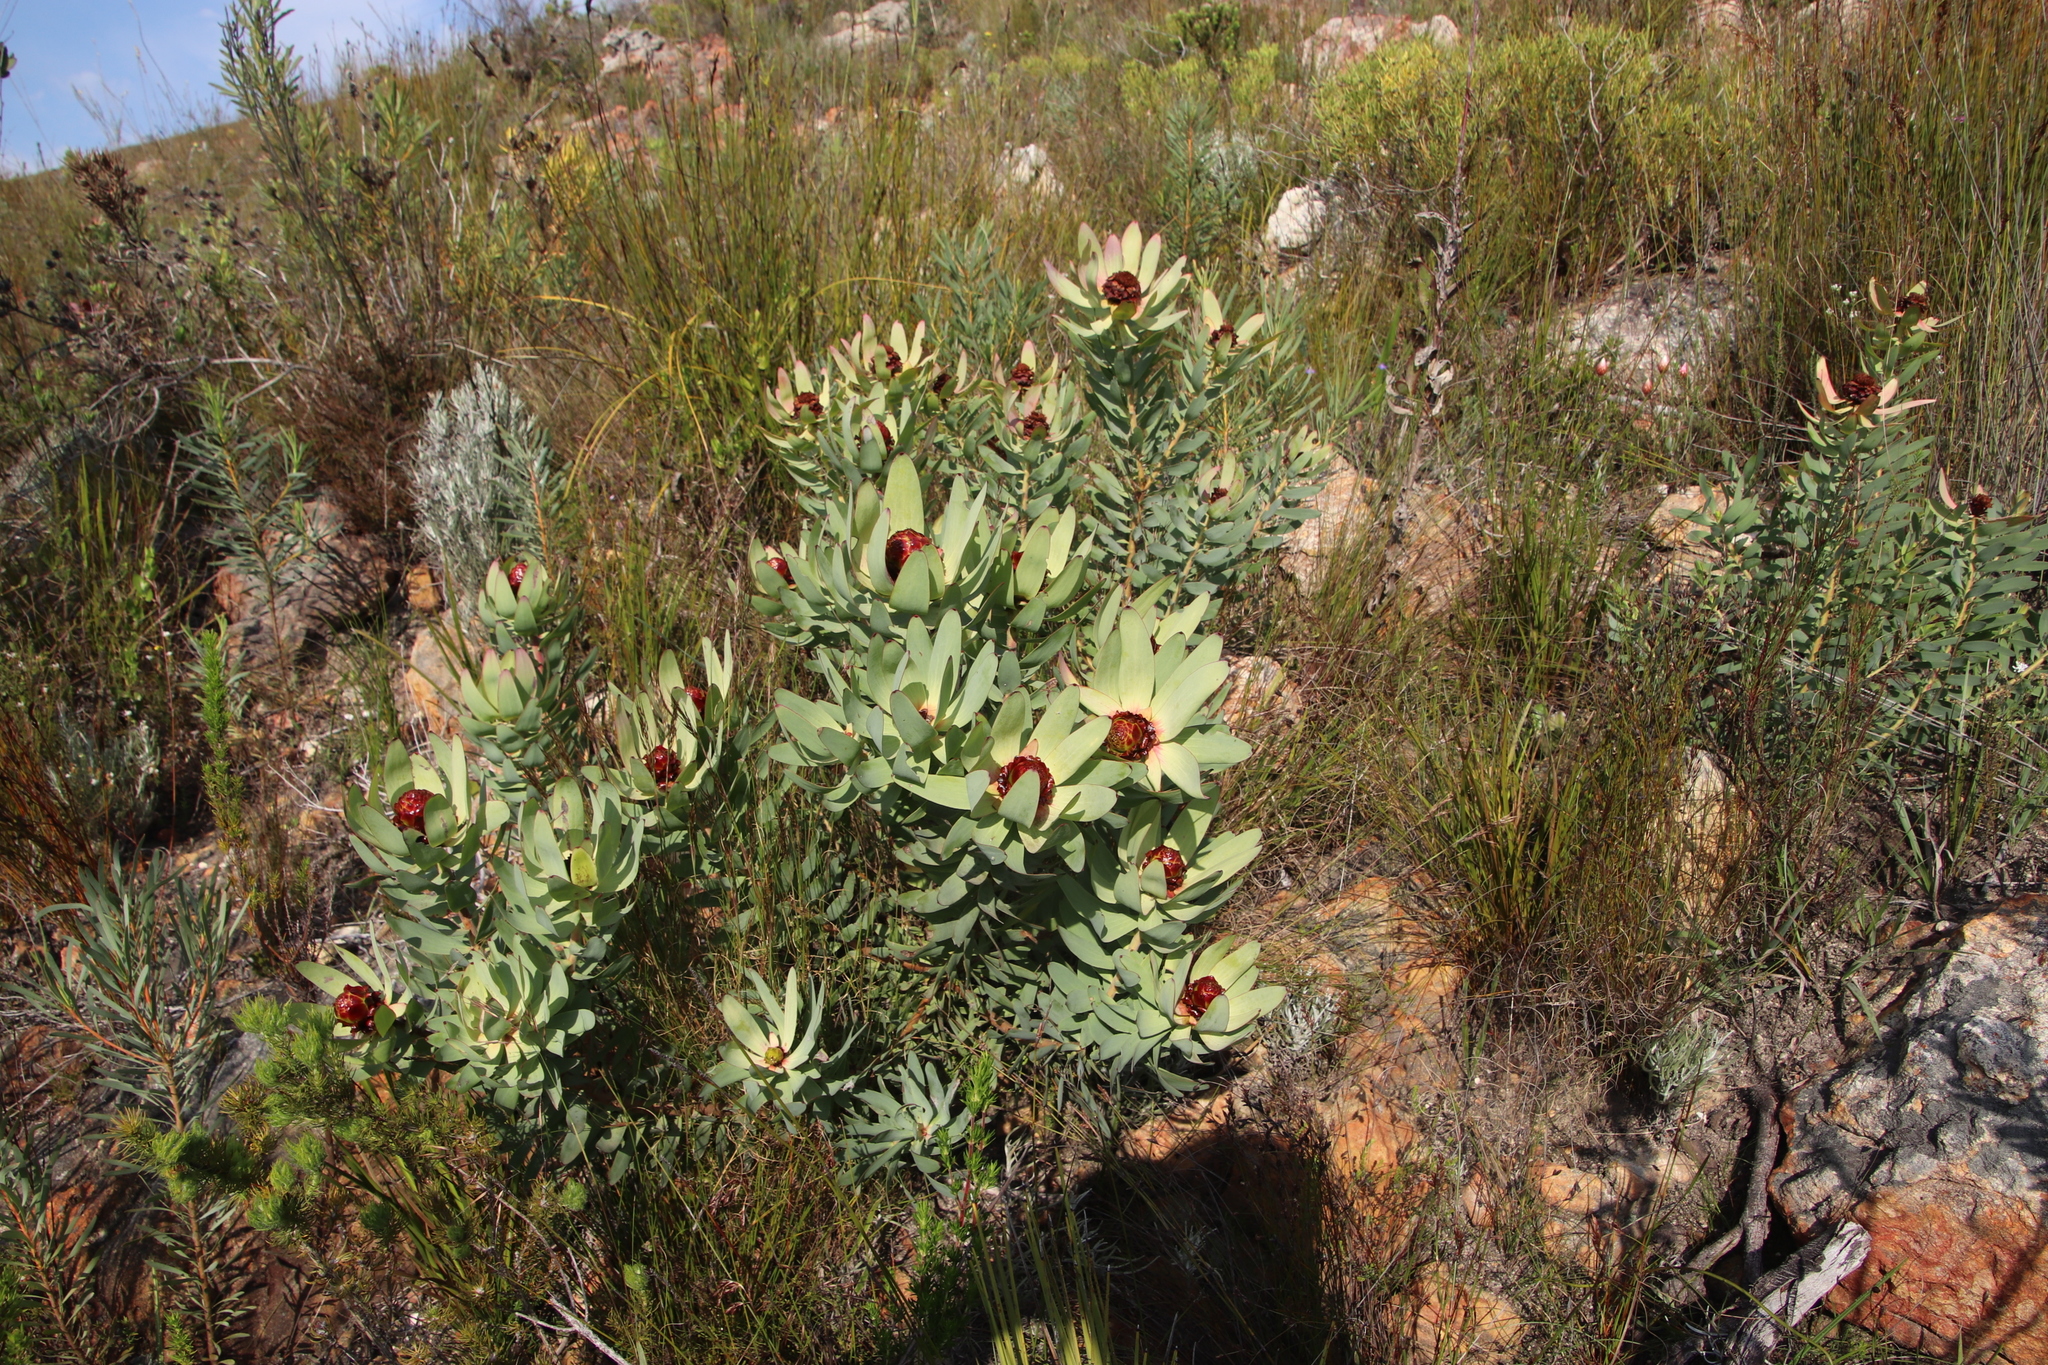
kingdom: Plantae
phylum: Tracheophyta
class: Magnoliopsida
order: Proteales
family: Proteaceae
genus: Leucadendron
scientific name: Leucadendron tinctum
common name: Spicy conebush
